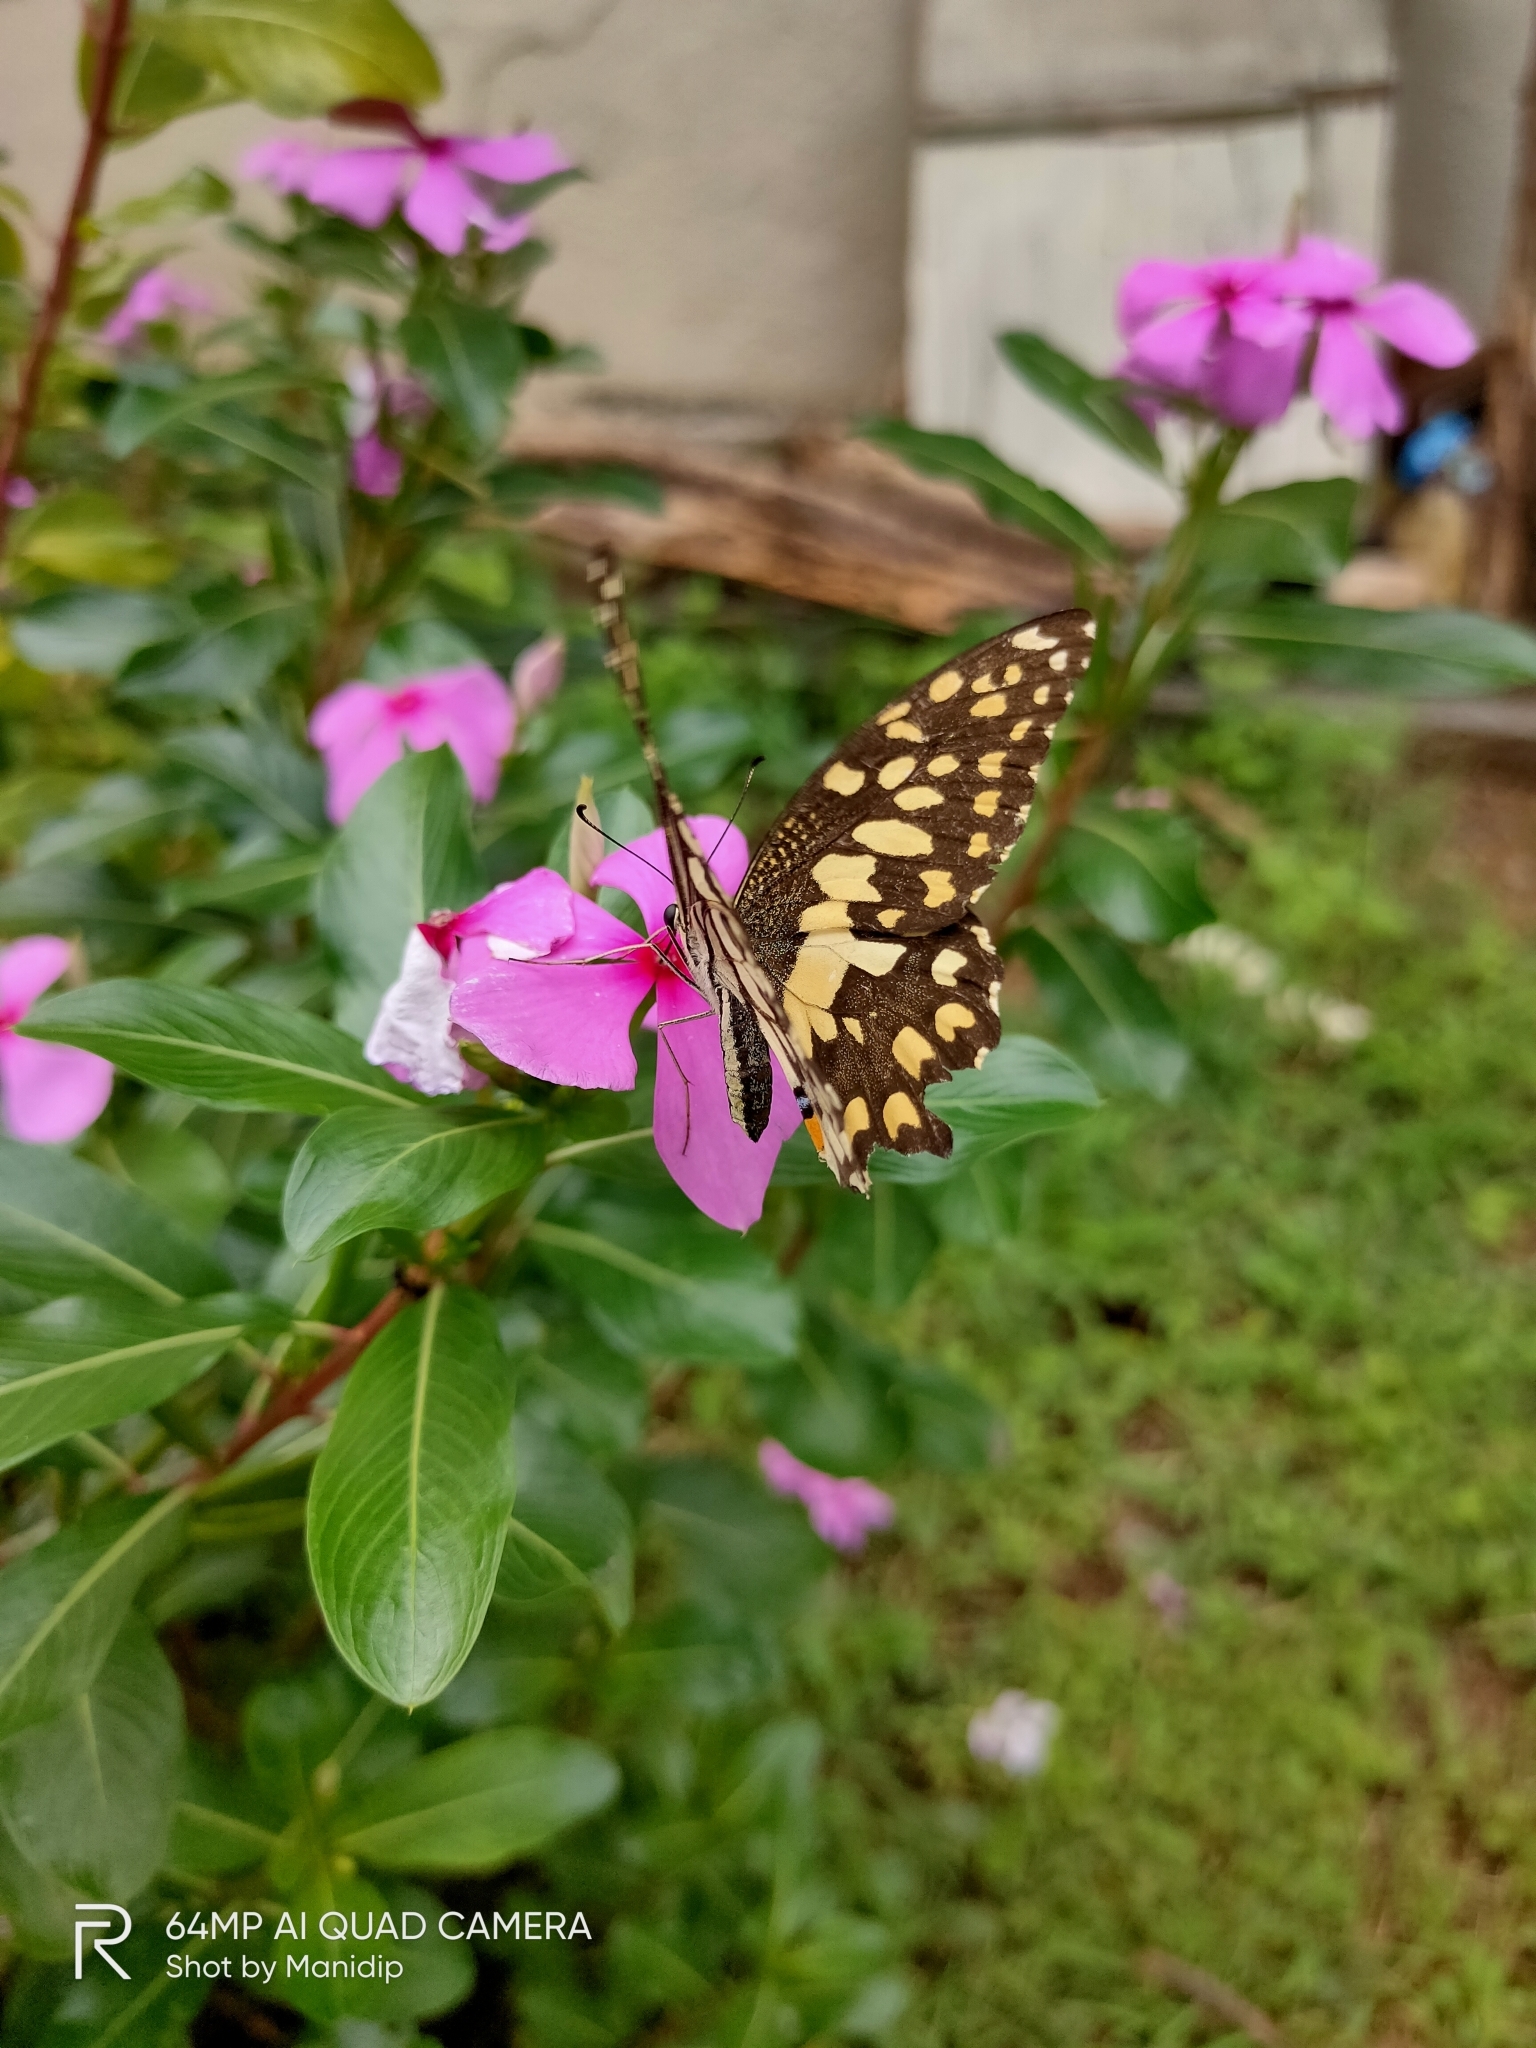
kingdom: Animalia
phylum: Arthropoda
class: Insecta
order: Lepidoptera
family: Papilionidae
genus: Papilio
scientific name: Papilio demoleus
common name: Lime butterfly
